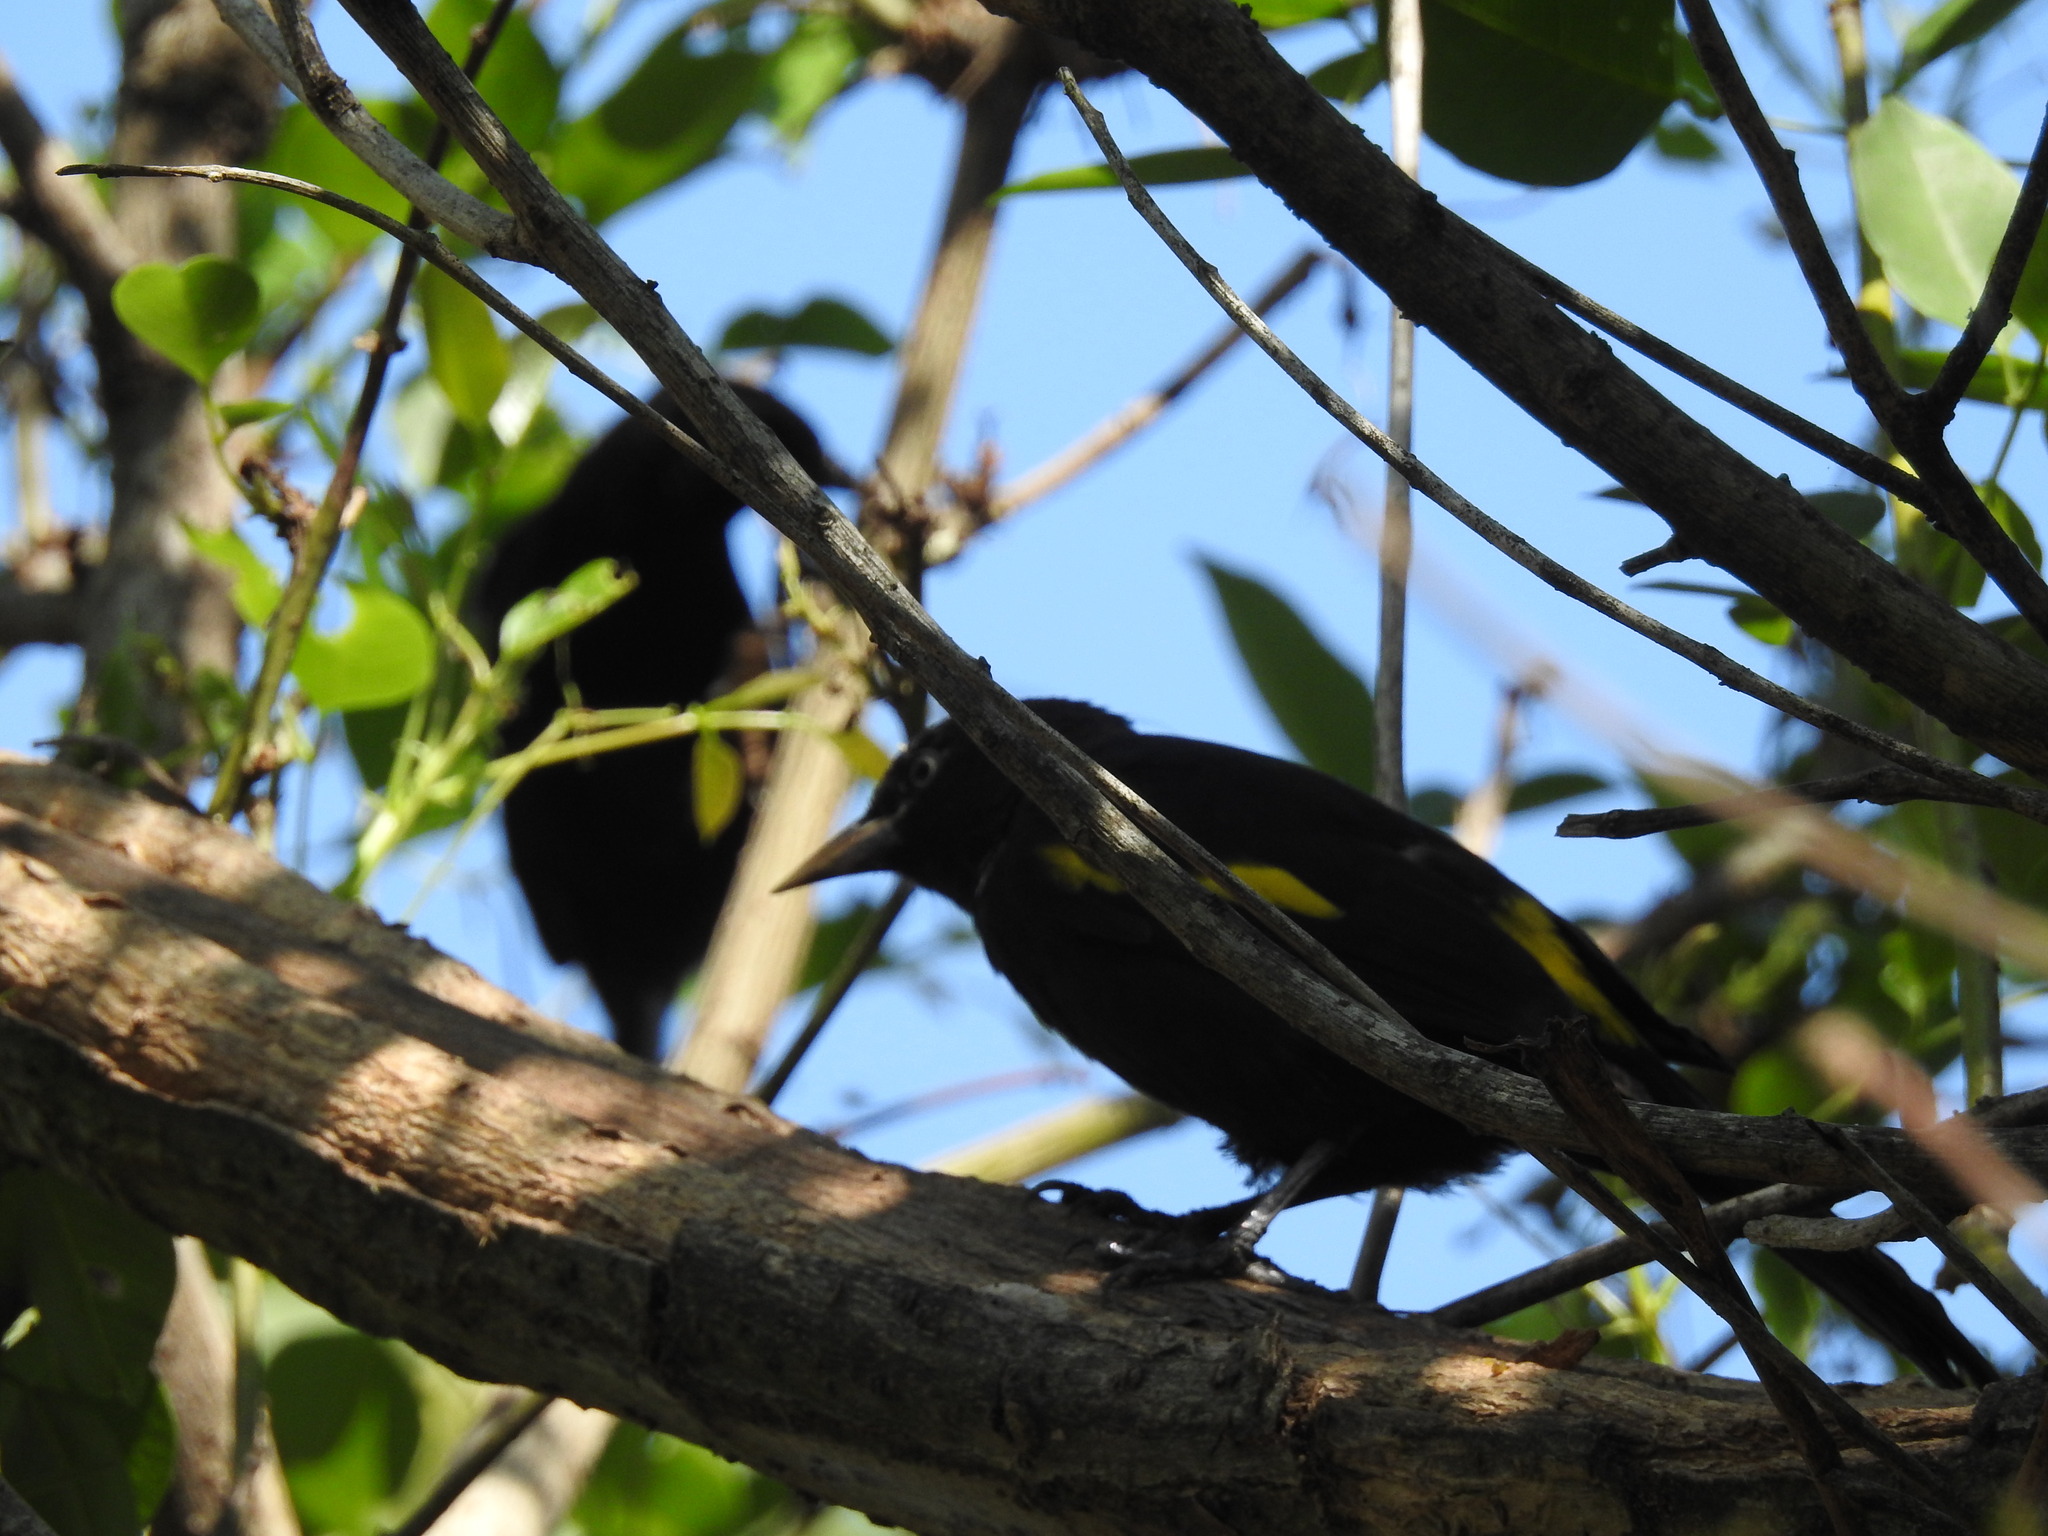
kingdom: Animalia
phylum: Chordata
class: Aves
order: Passeriformes
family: Icteridae
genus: Cacicus
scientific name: Cacicus chrysopterus
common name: Golden-winged cacique
